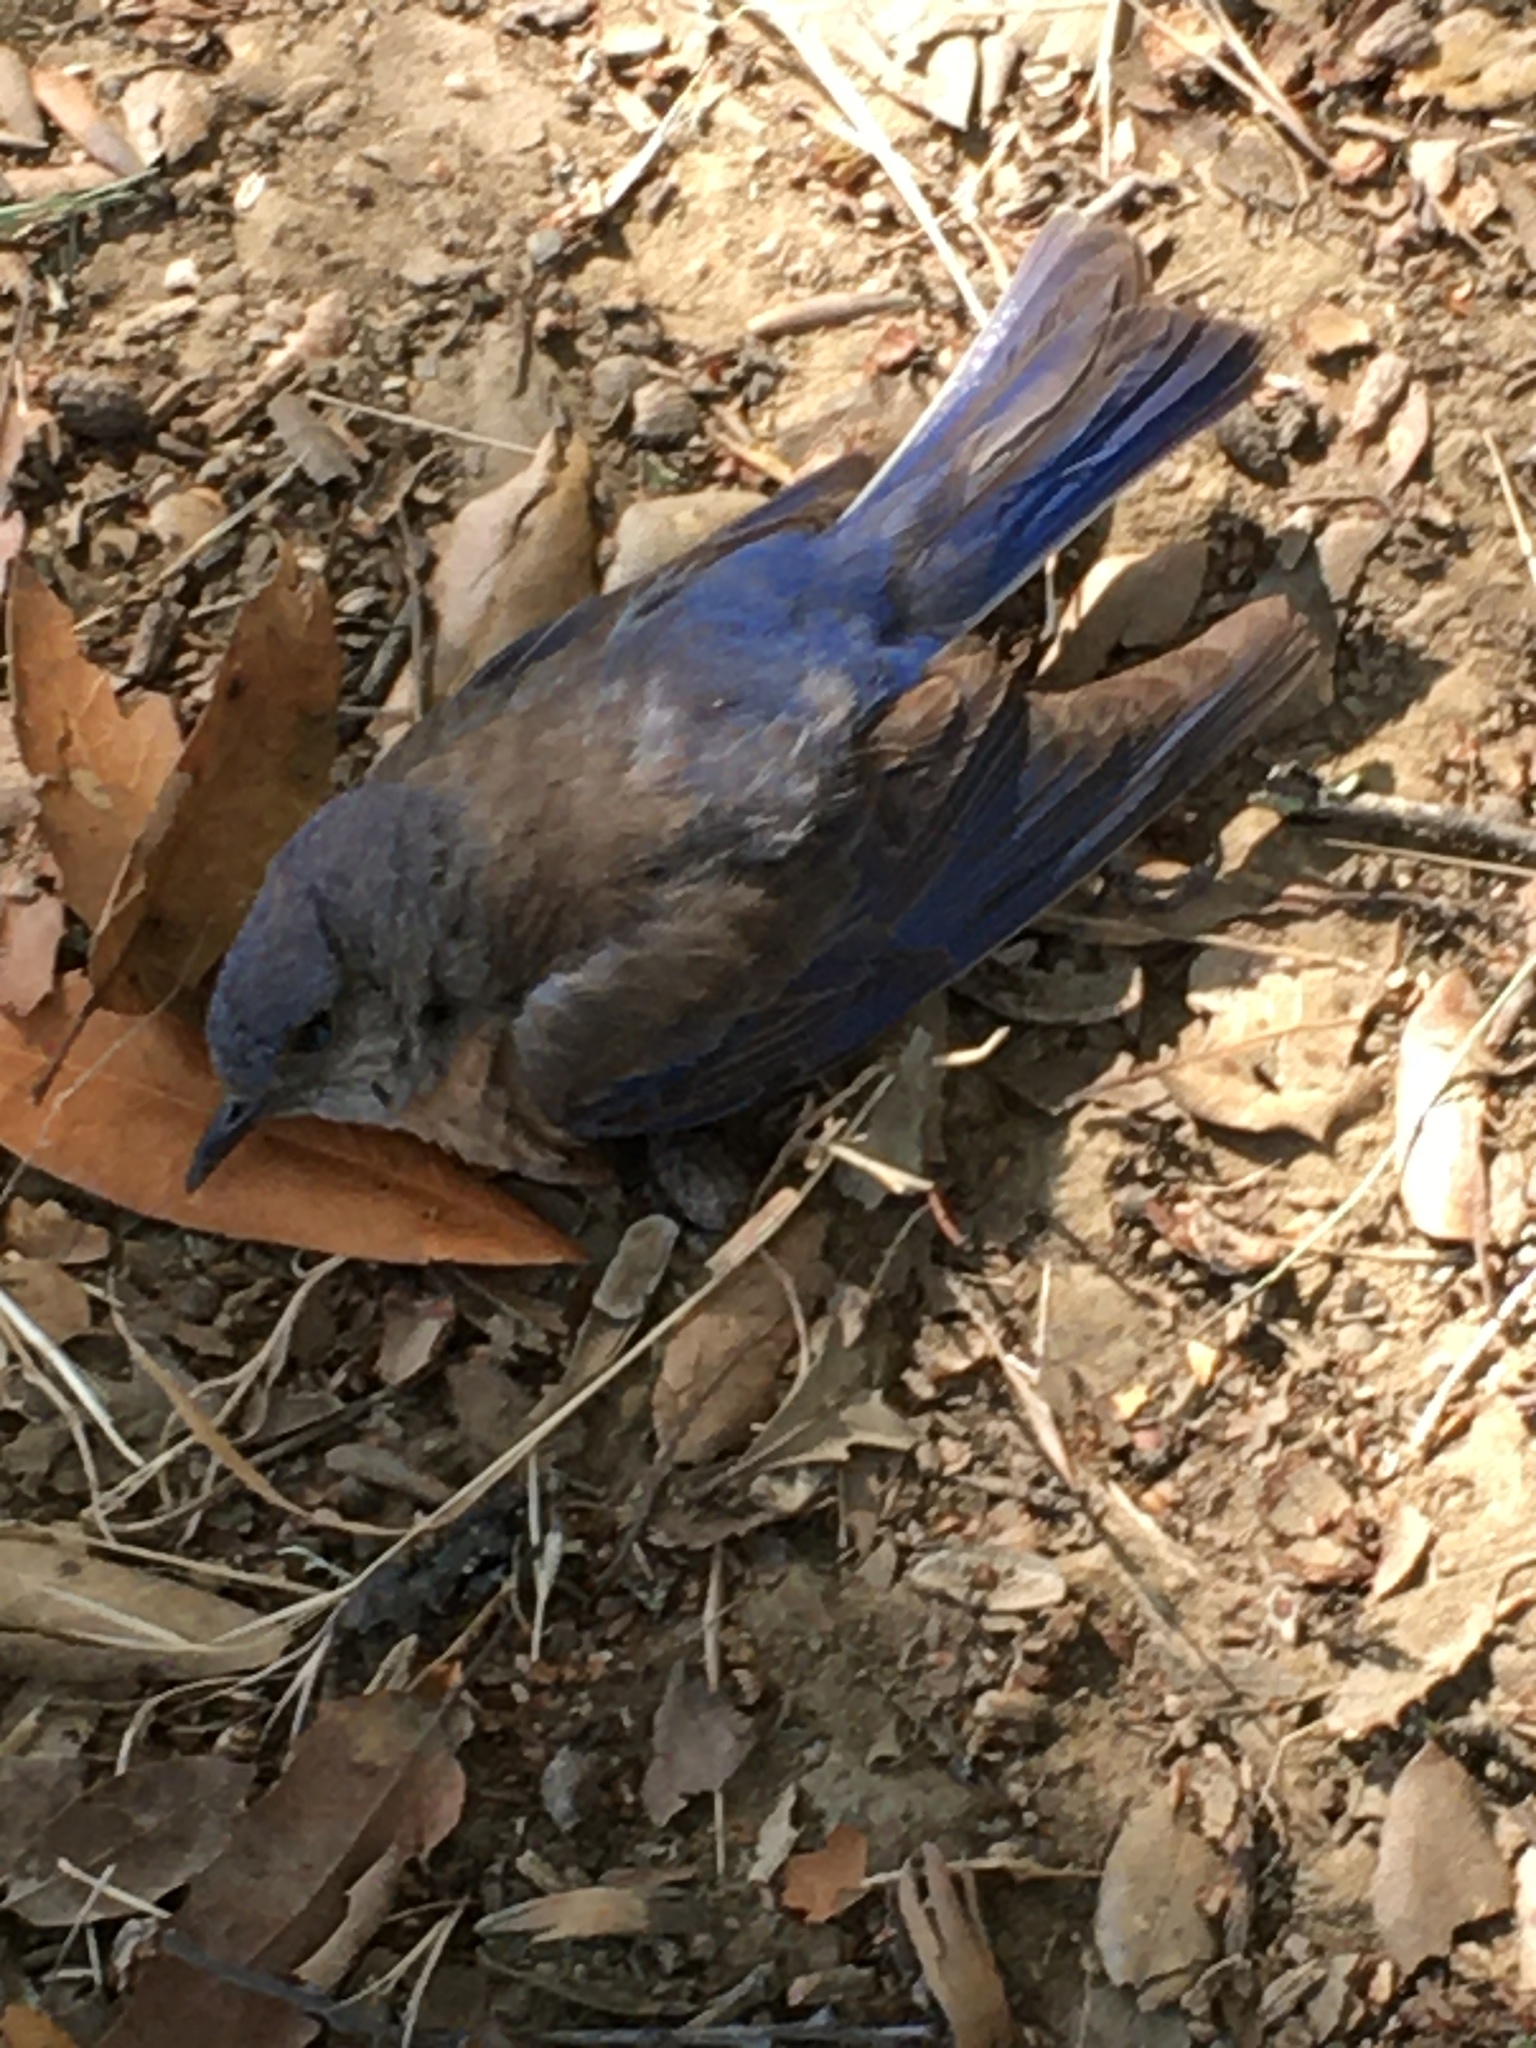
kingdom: Animalia
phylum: Chordata
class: Aves
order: Passeriformes
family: Turdidae
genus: Sialia
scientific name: Sialia mexicana
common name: Western bluebird
